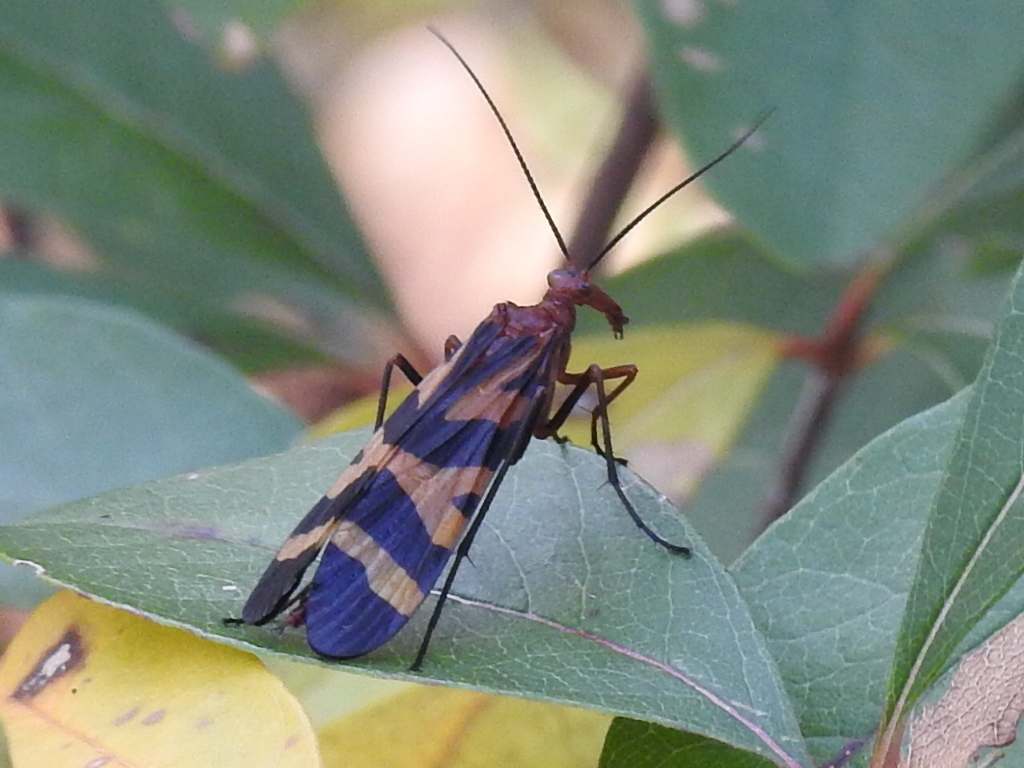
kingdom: Animalia
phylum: Arthropoda
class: Insecta
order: Mecoptera
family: Panorpidae
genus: Panorpa
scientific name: Panorpa nuptialis
